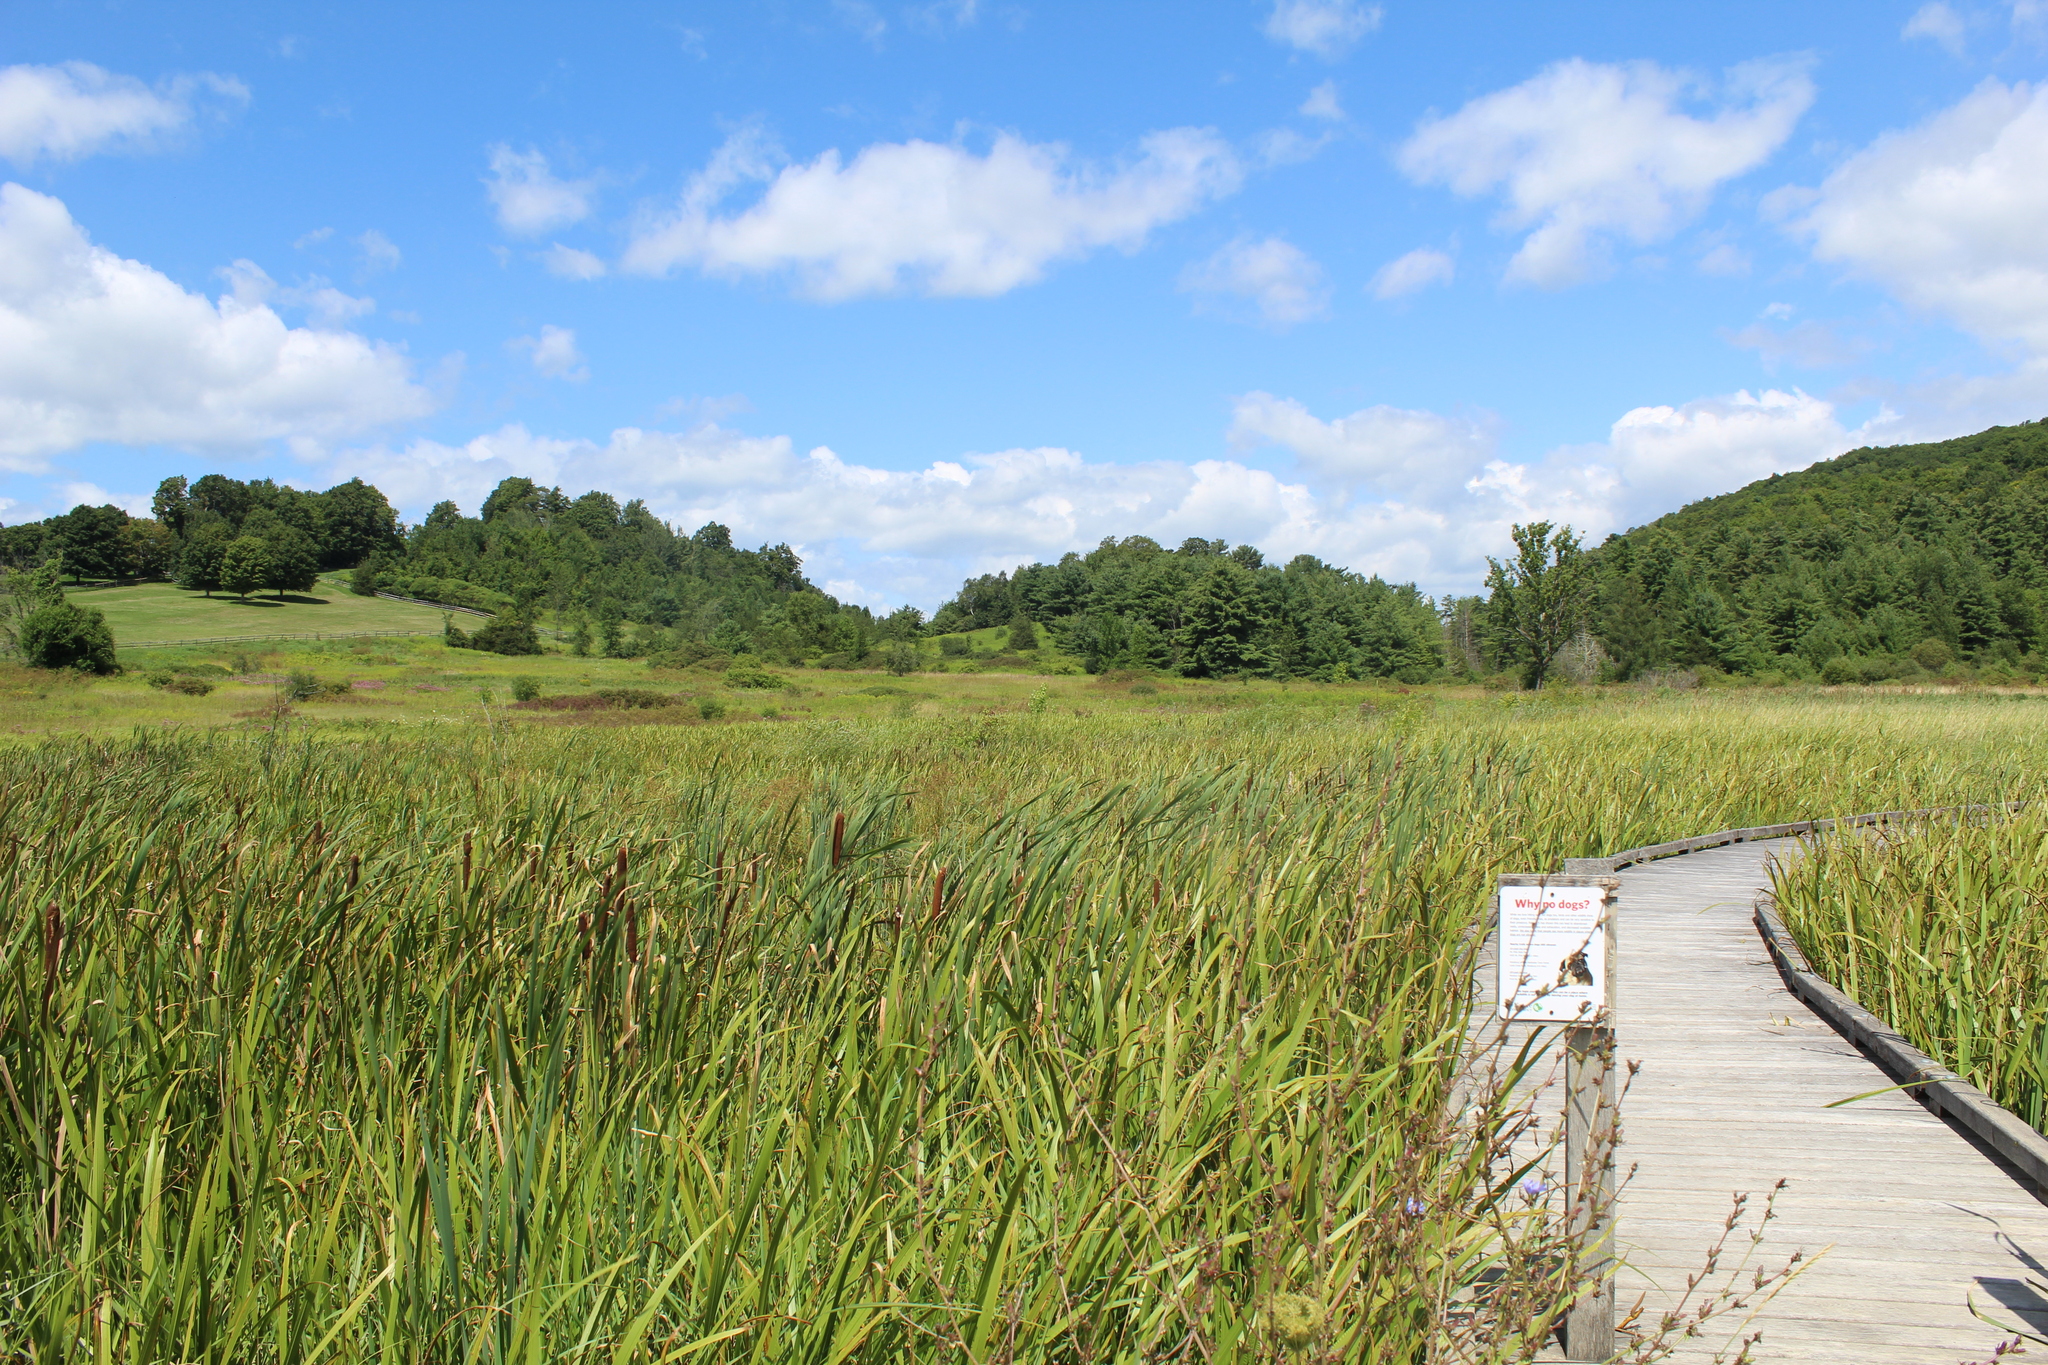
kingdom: Plantae
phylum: Tracheophyta
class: Liliopsida
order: Poales
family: Typhaceae
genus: Typha
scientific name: Typha latifolia
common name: Broadleaf cattail
